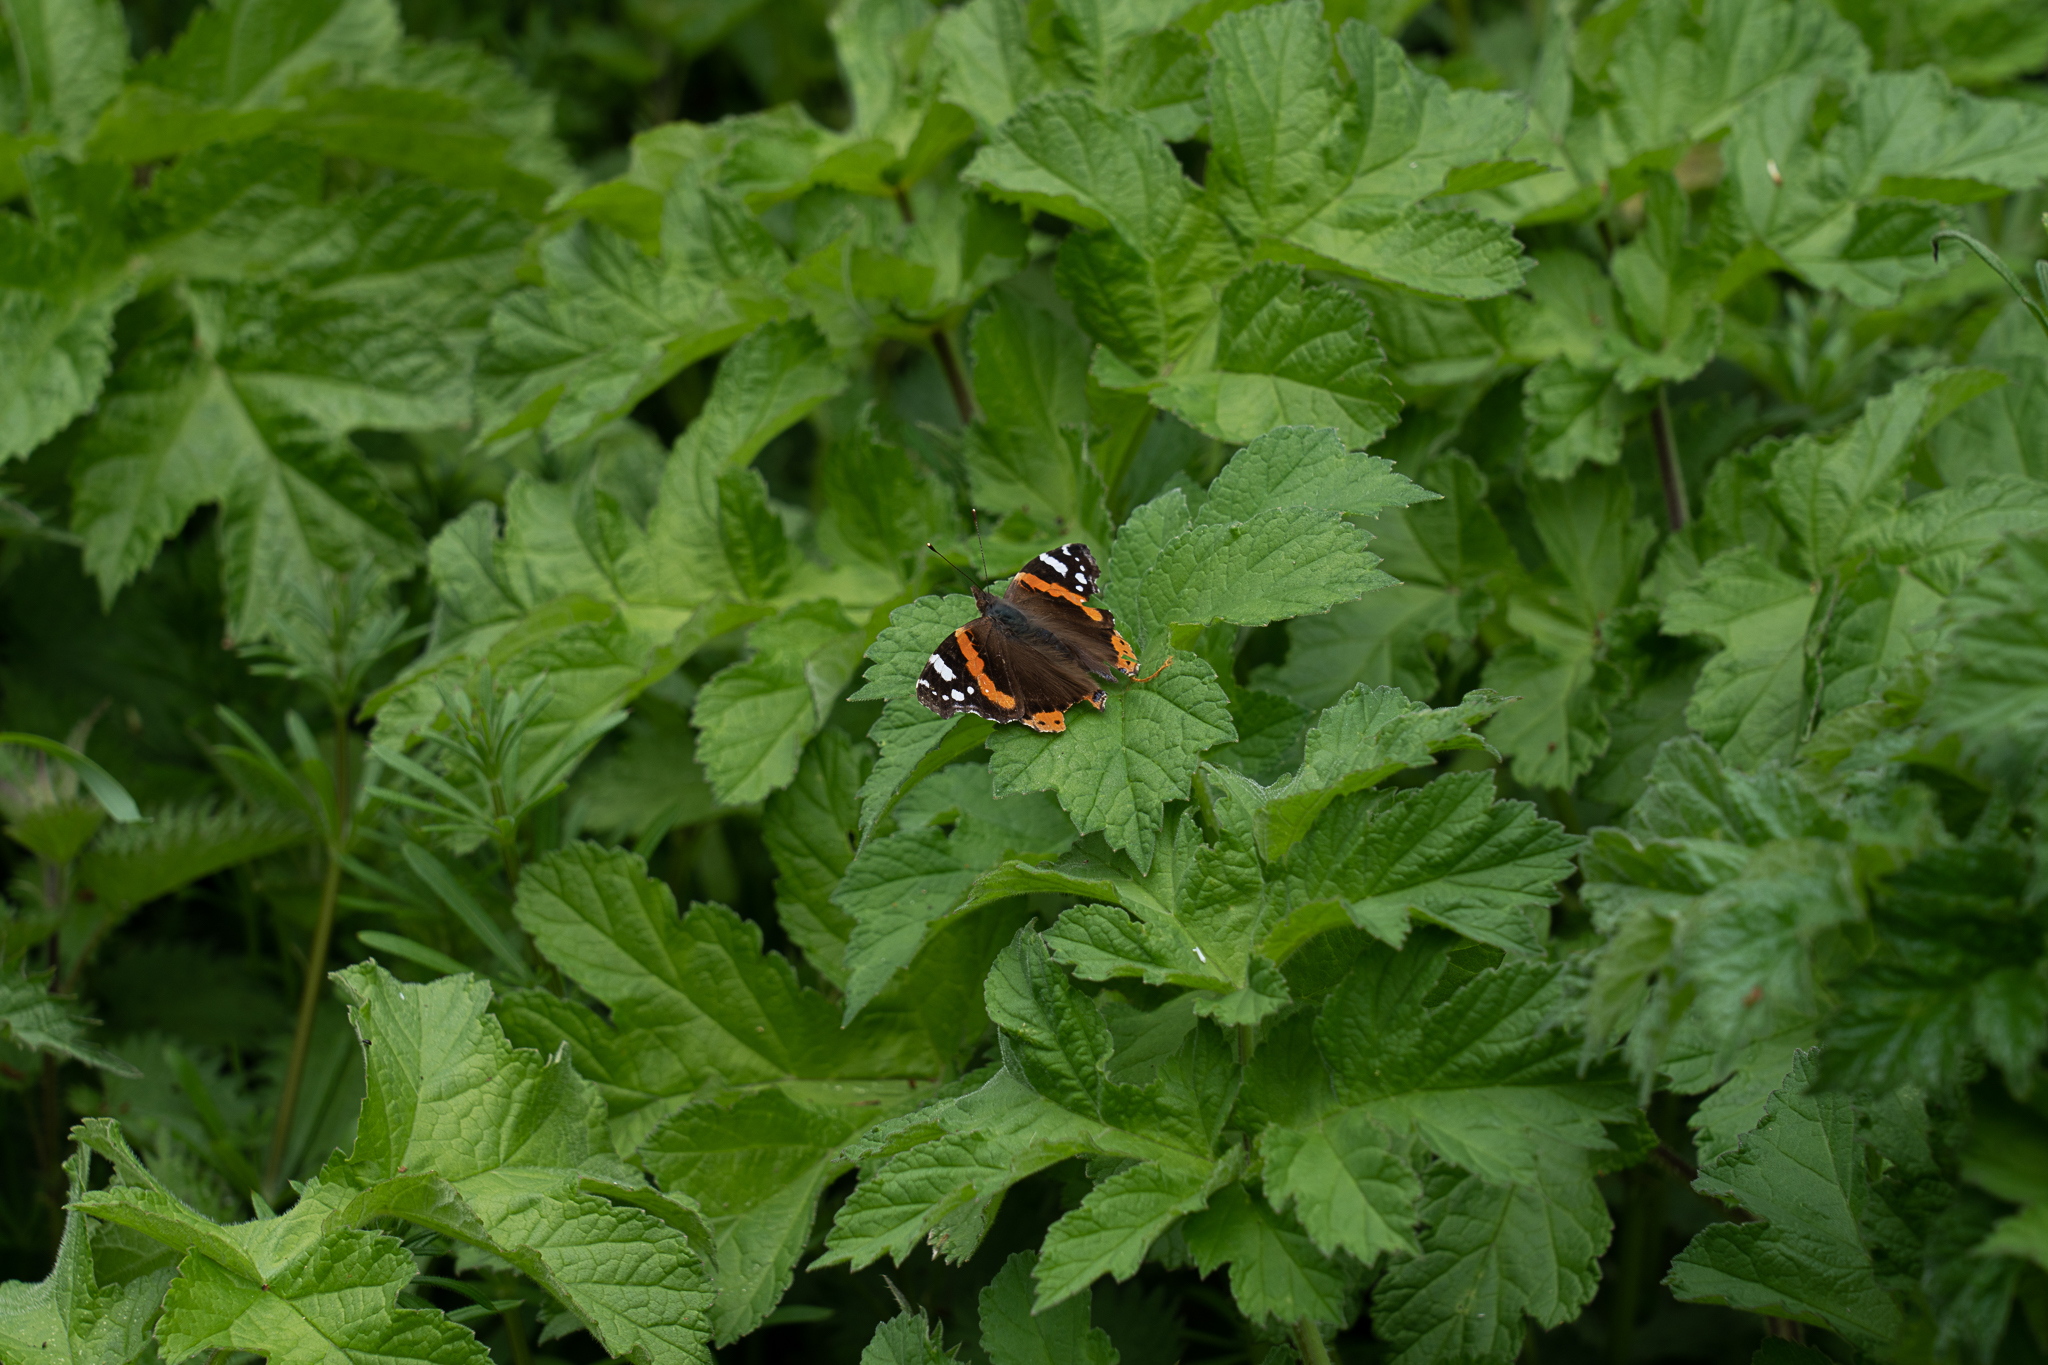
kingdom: Animalia
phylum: Arthropoda
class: Insecta
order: Lepidoptera
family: Nymphalidae
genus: Vanessa
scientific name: Vanessa atalanta
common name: Red admiral
